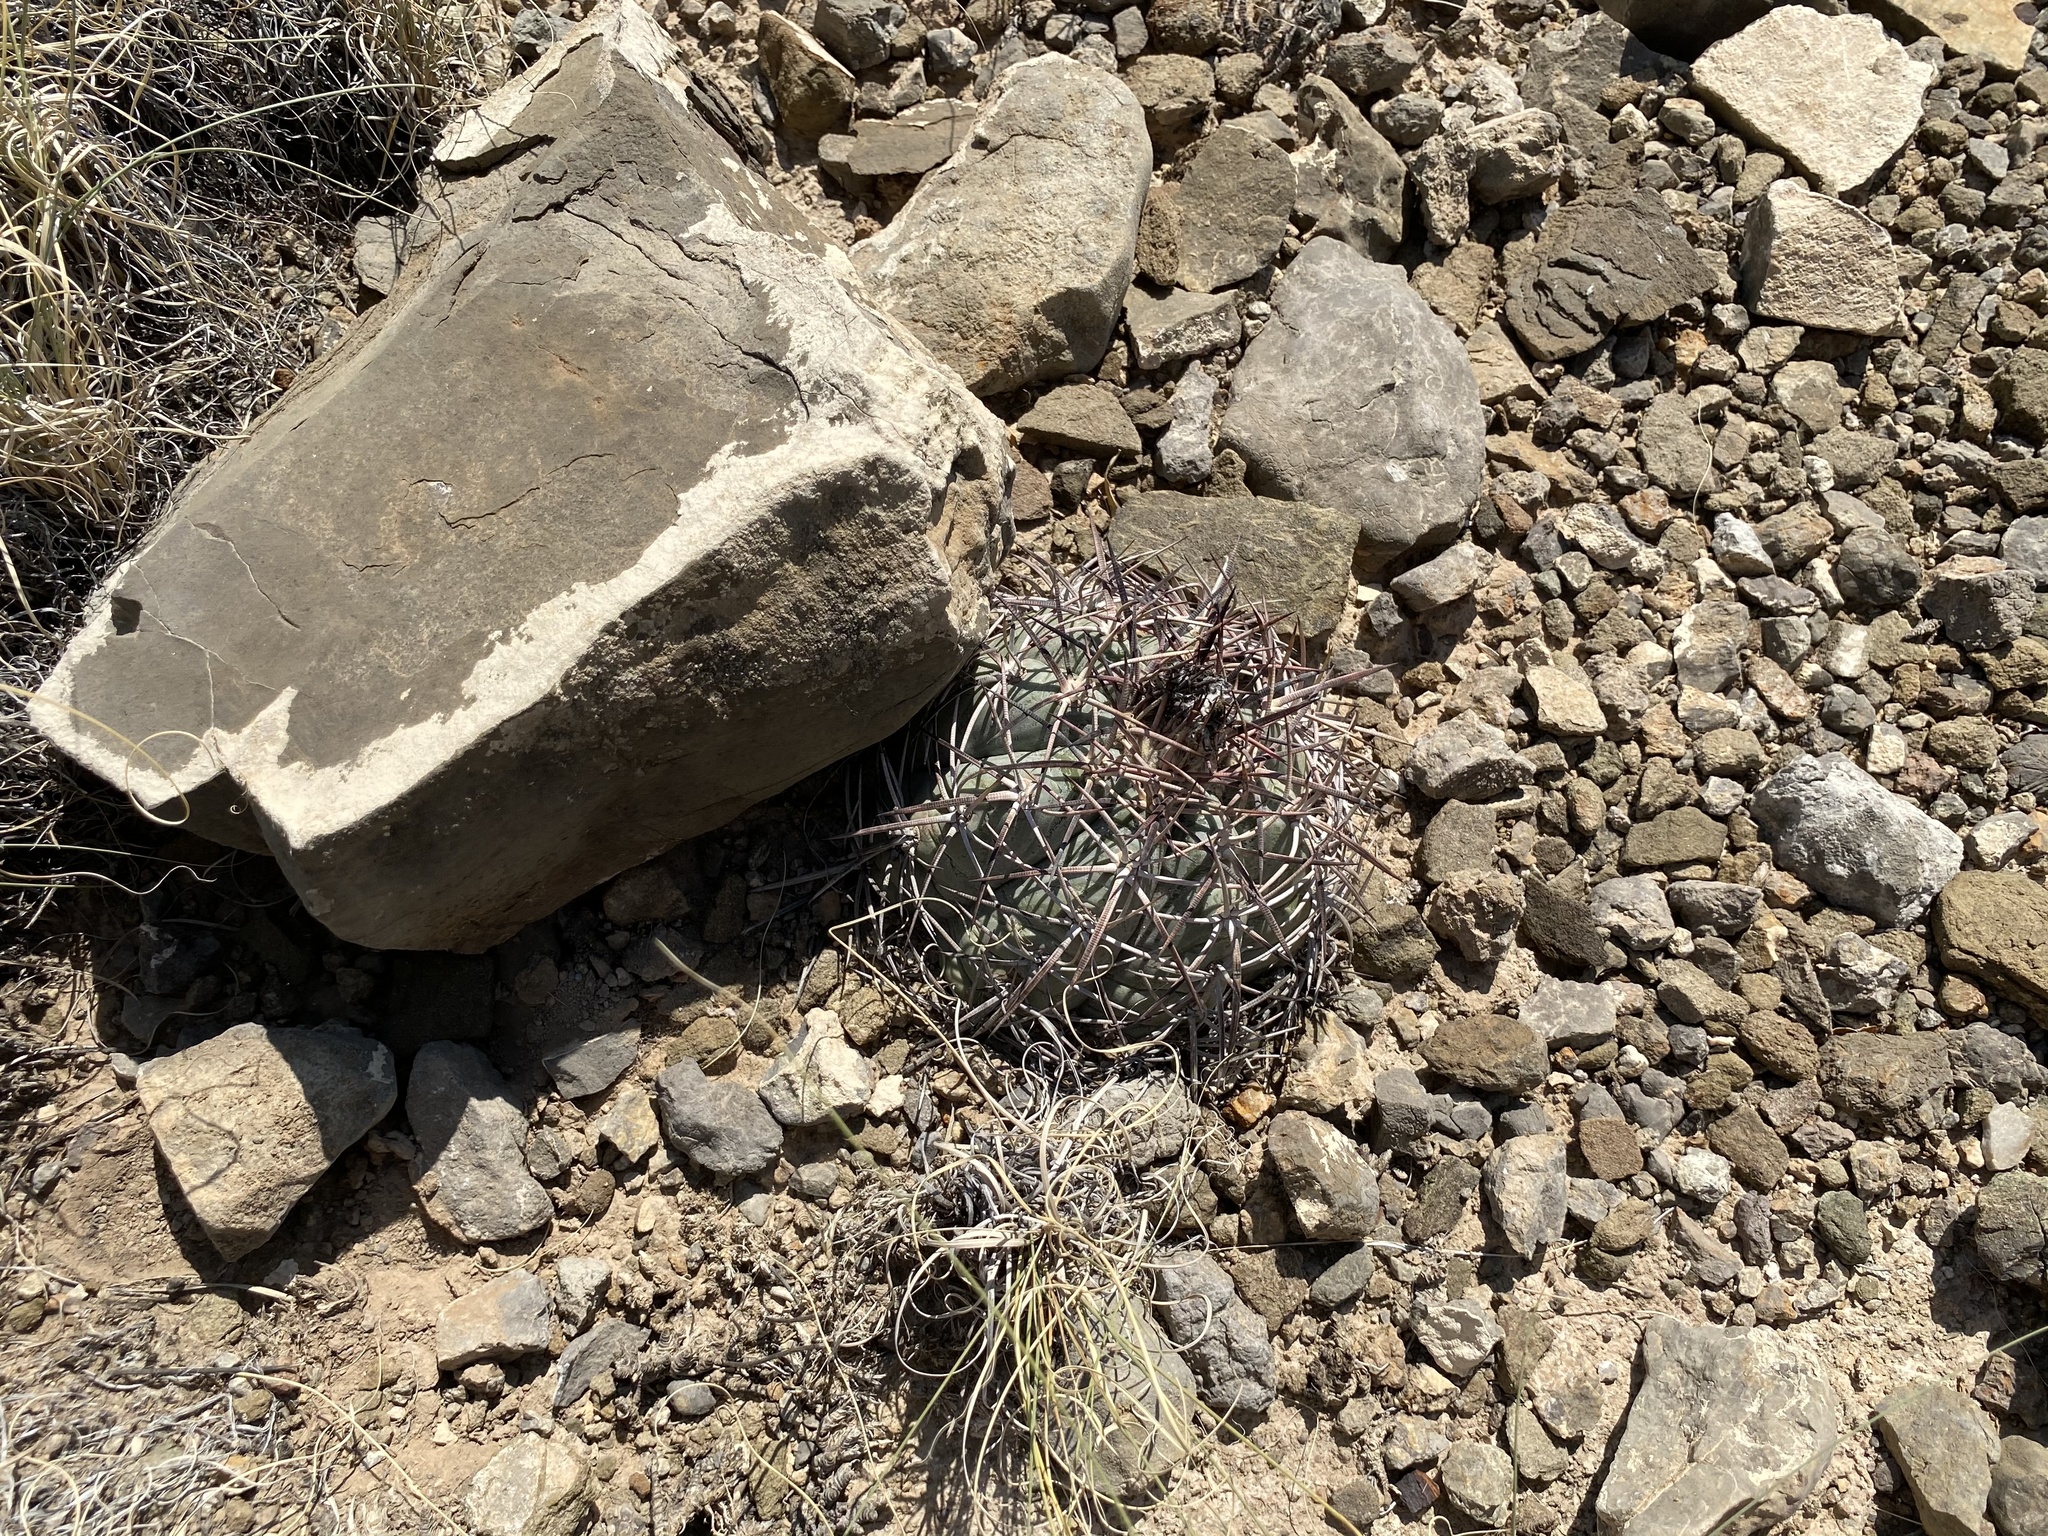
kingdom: Plantae
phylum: Tracheophyta
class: Magnoliopsida
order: Caryophyllales
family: Cactaceae
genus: Echinocactus
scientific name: Echinocactus horizonthalonius
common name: Devilshead
